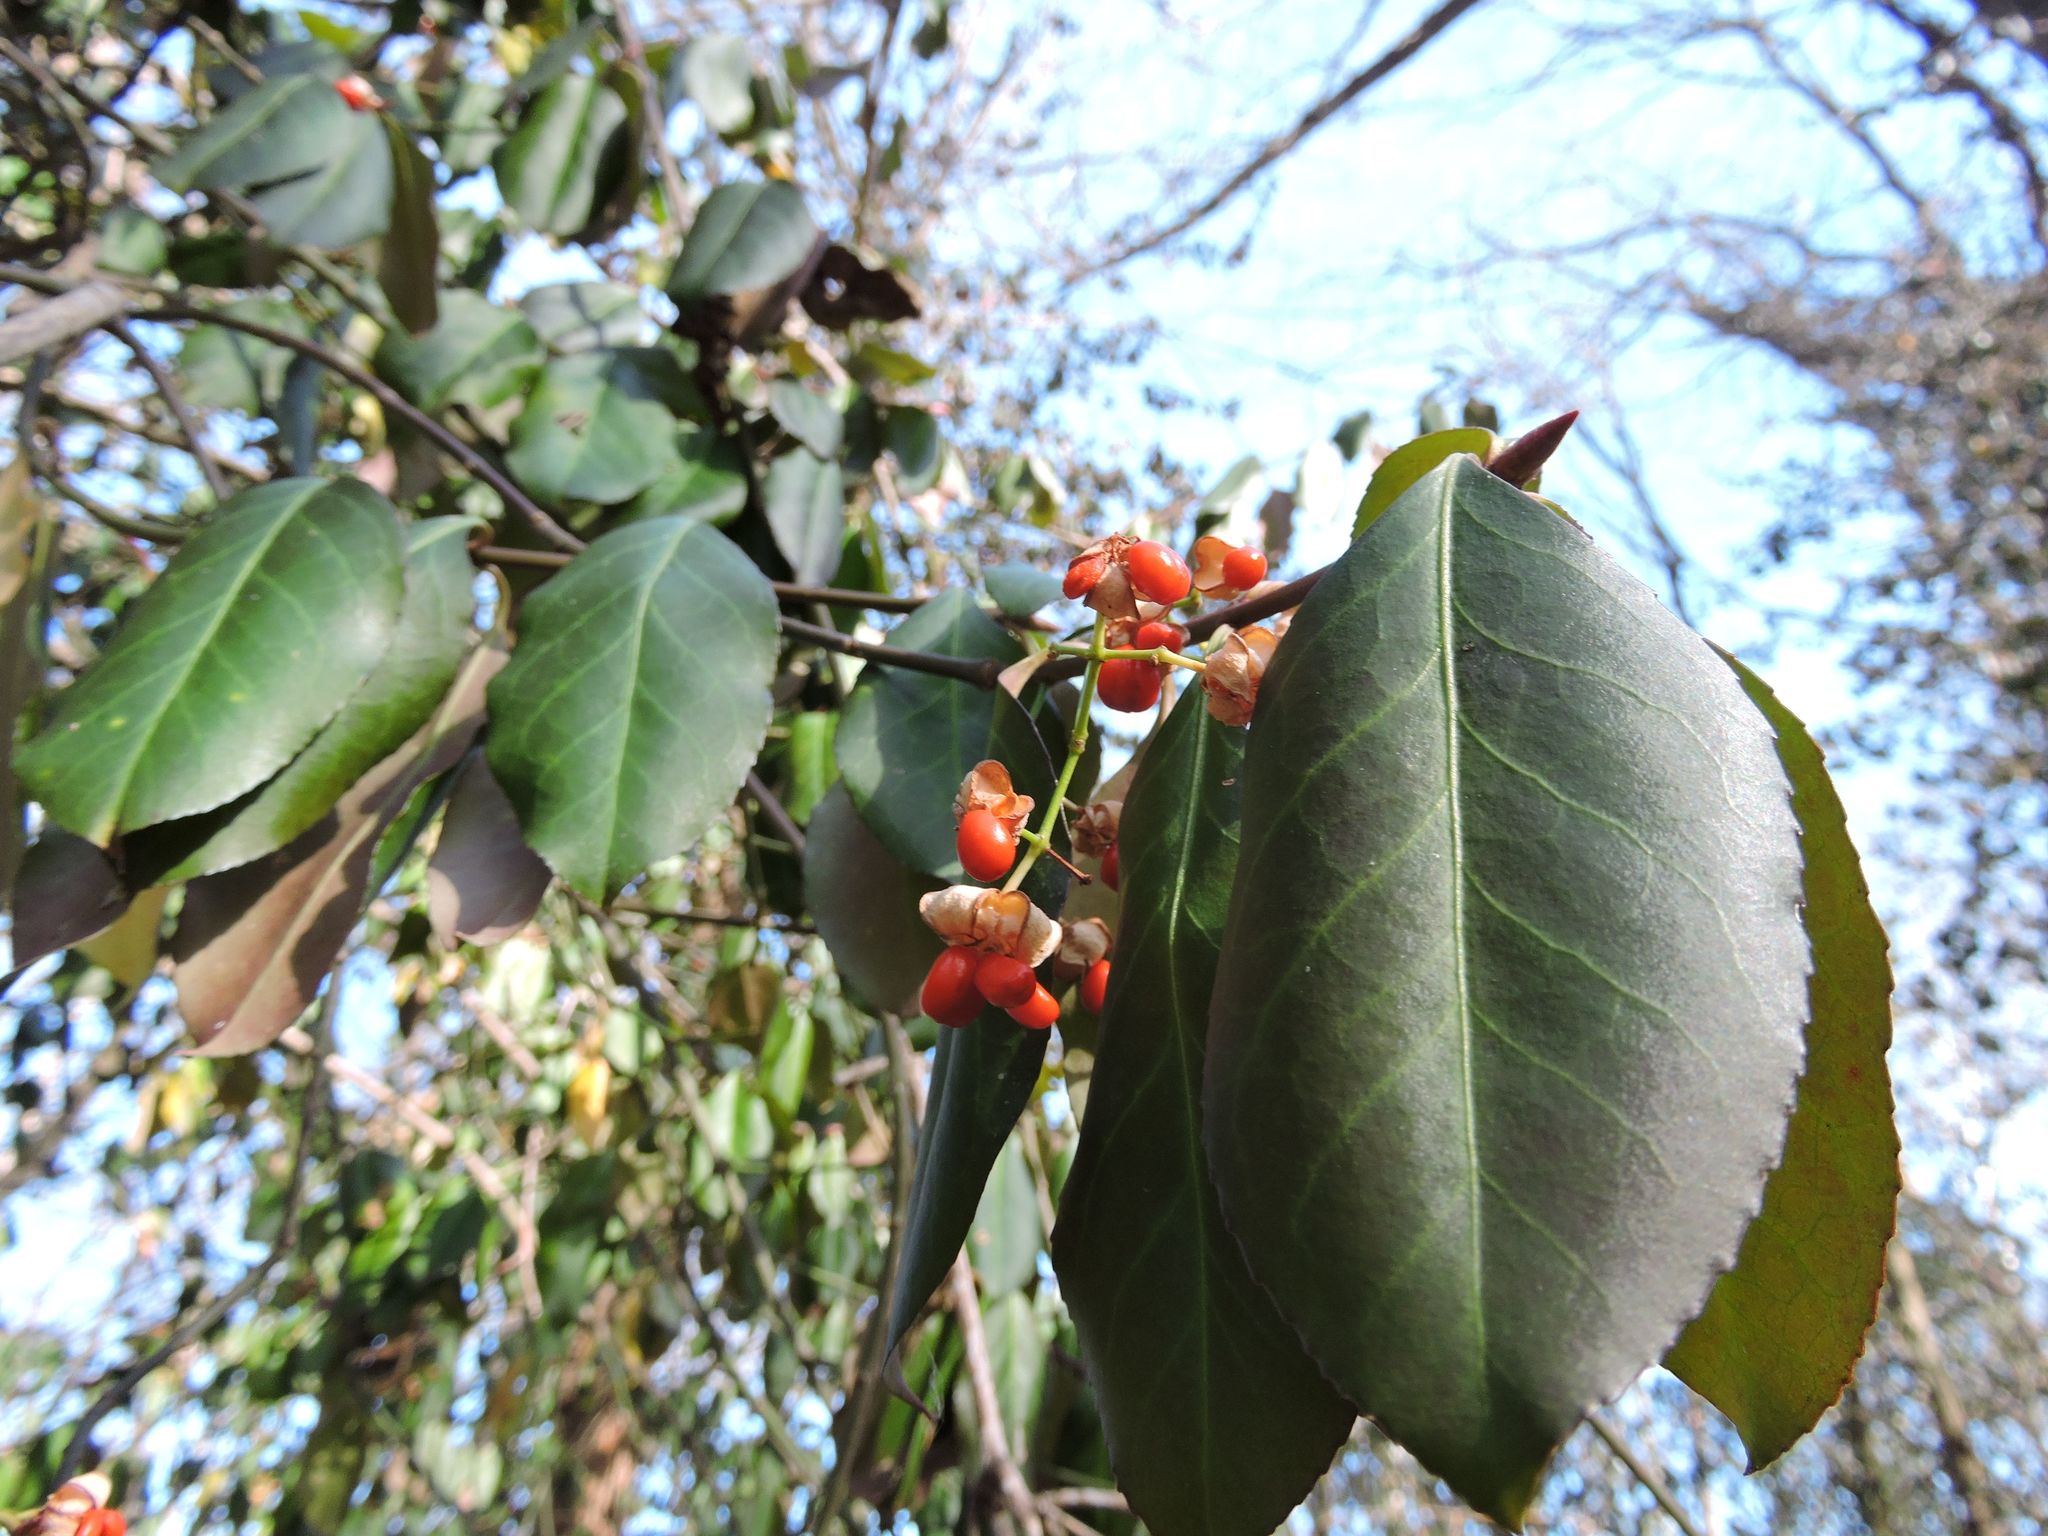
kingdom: Plantae
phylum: Tracheophyta
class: Magnoliopsida
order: Celastrales
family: Celastraceae
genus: Euonymus
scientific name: Euonymus fortunei
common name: Climbing euonymus
